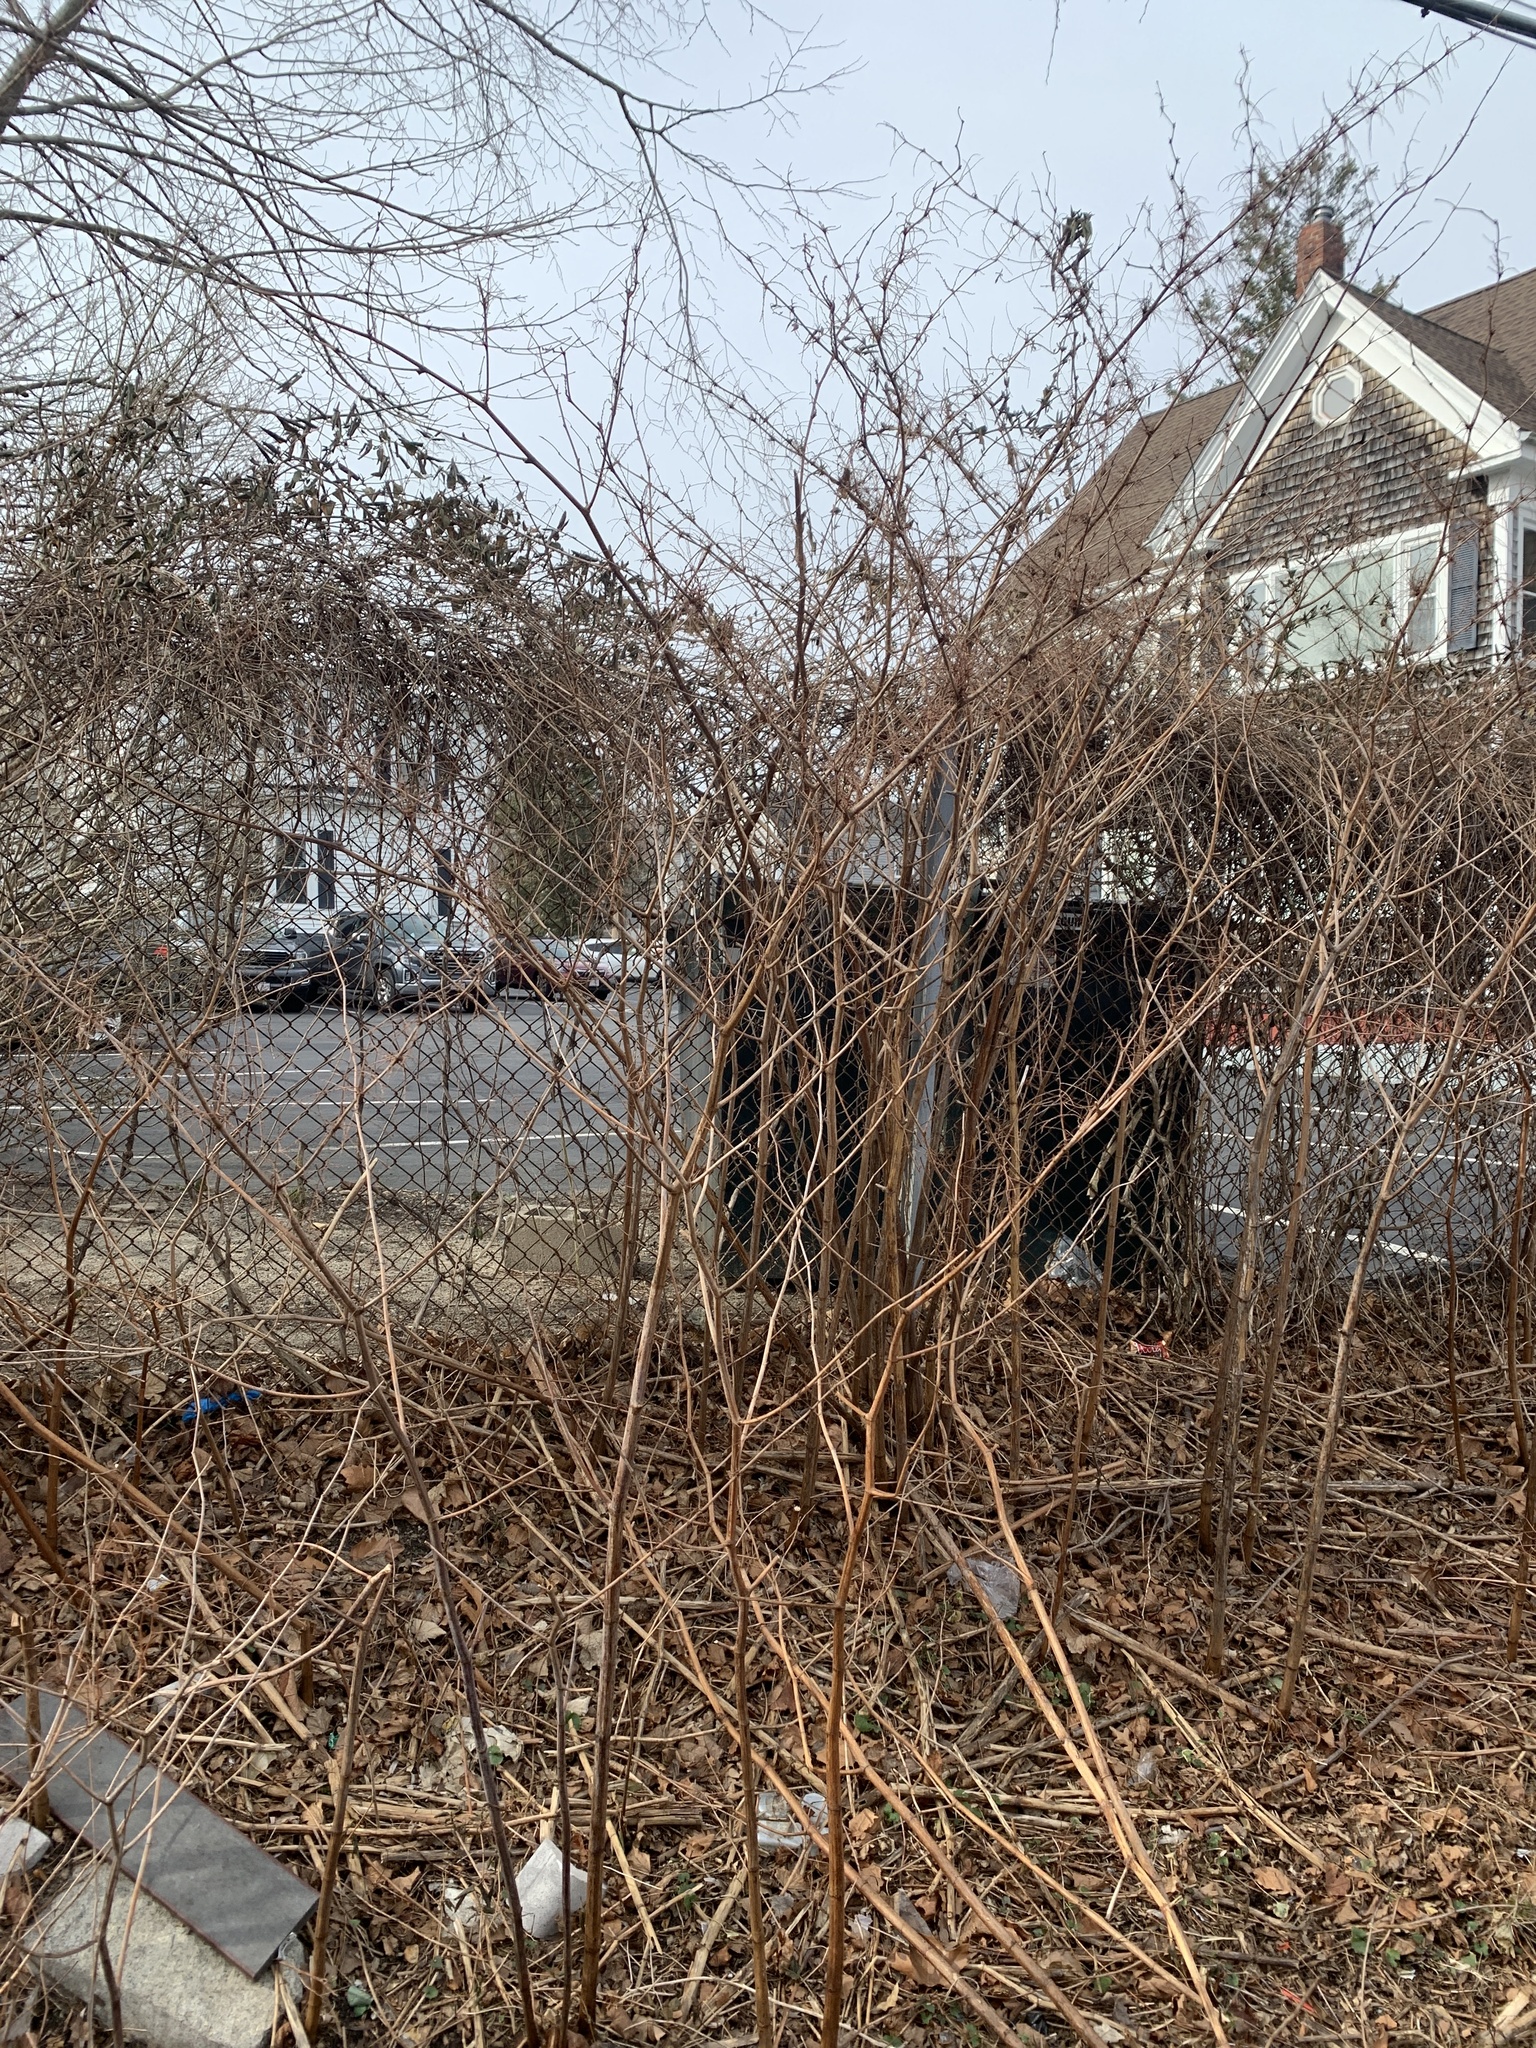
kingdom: Plantae
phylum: Tracheophyta
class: Magnoliopsida
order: Caryophyllales
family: Polygonaceae
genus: Reynoutria
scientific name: Reynoutria japonica
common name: Japanese knotweed
